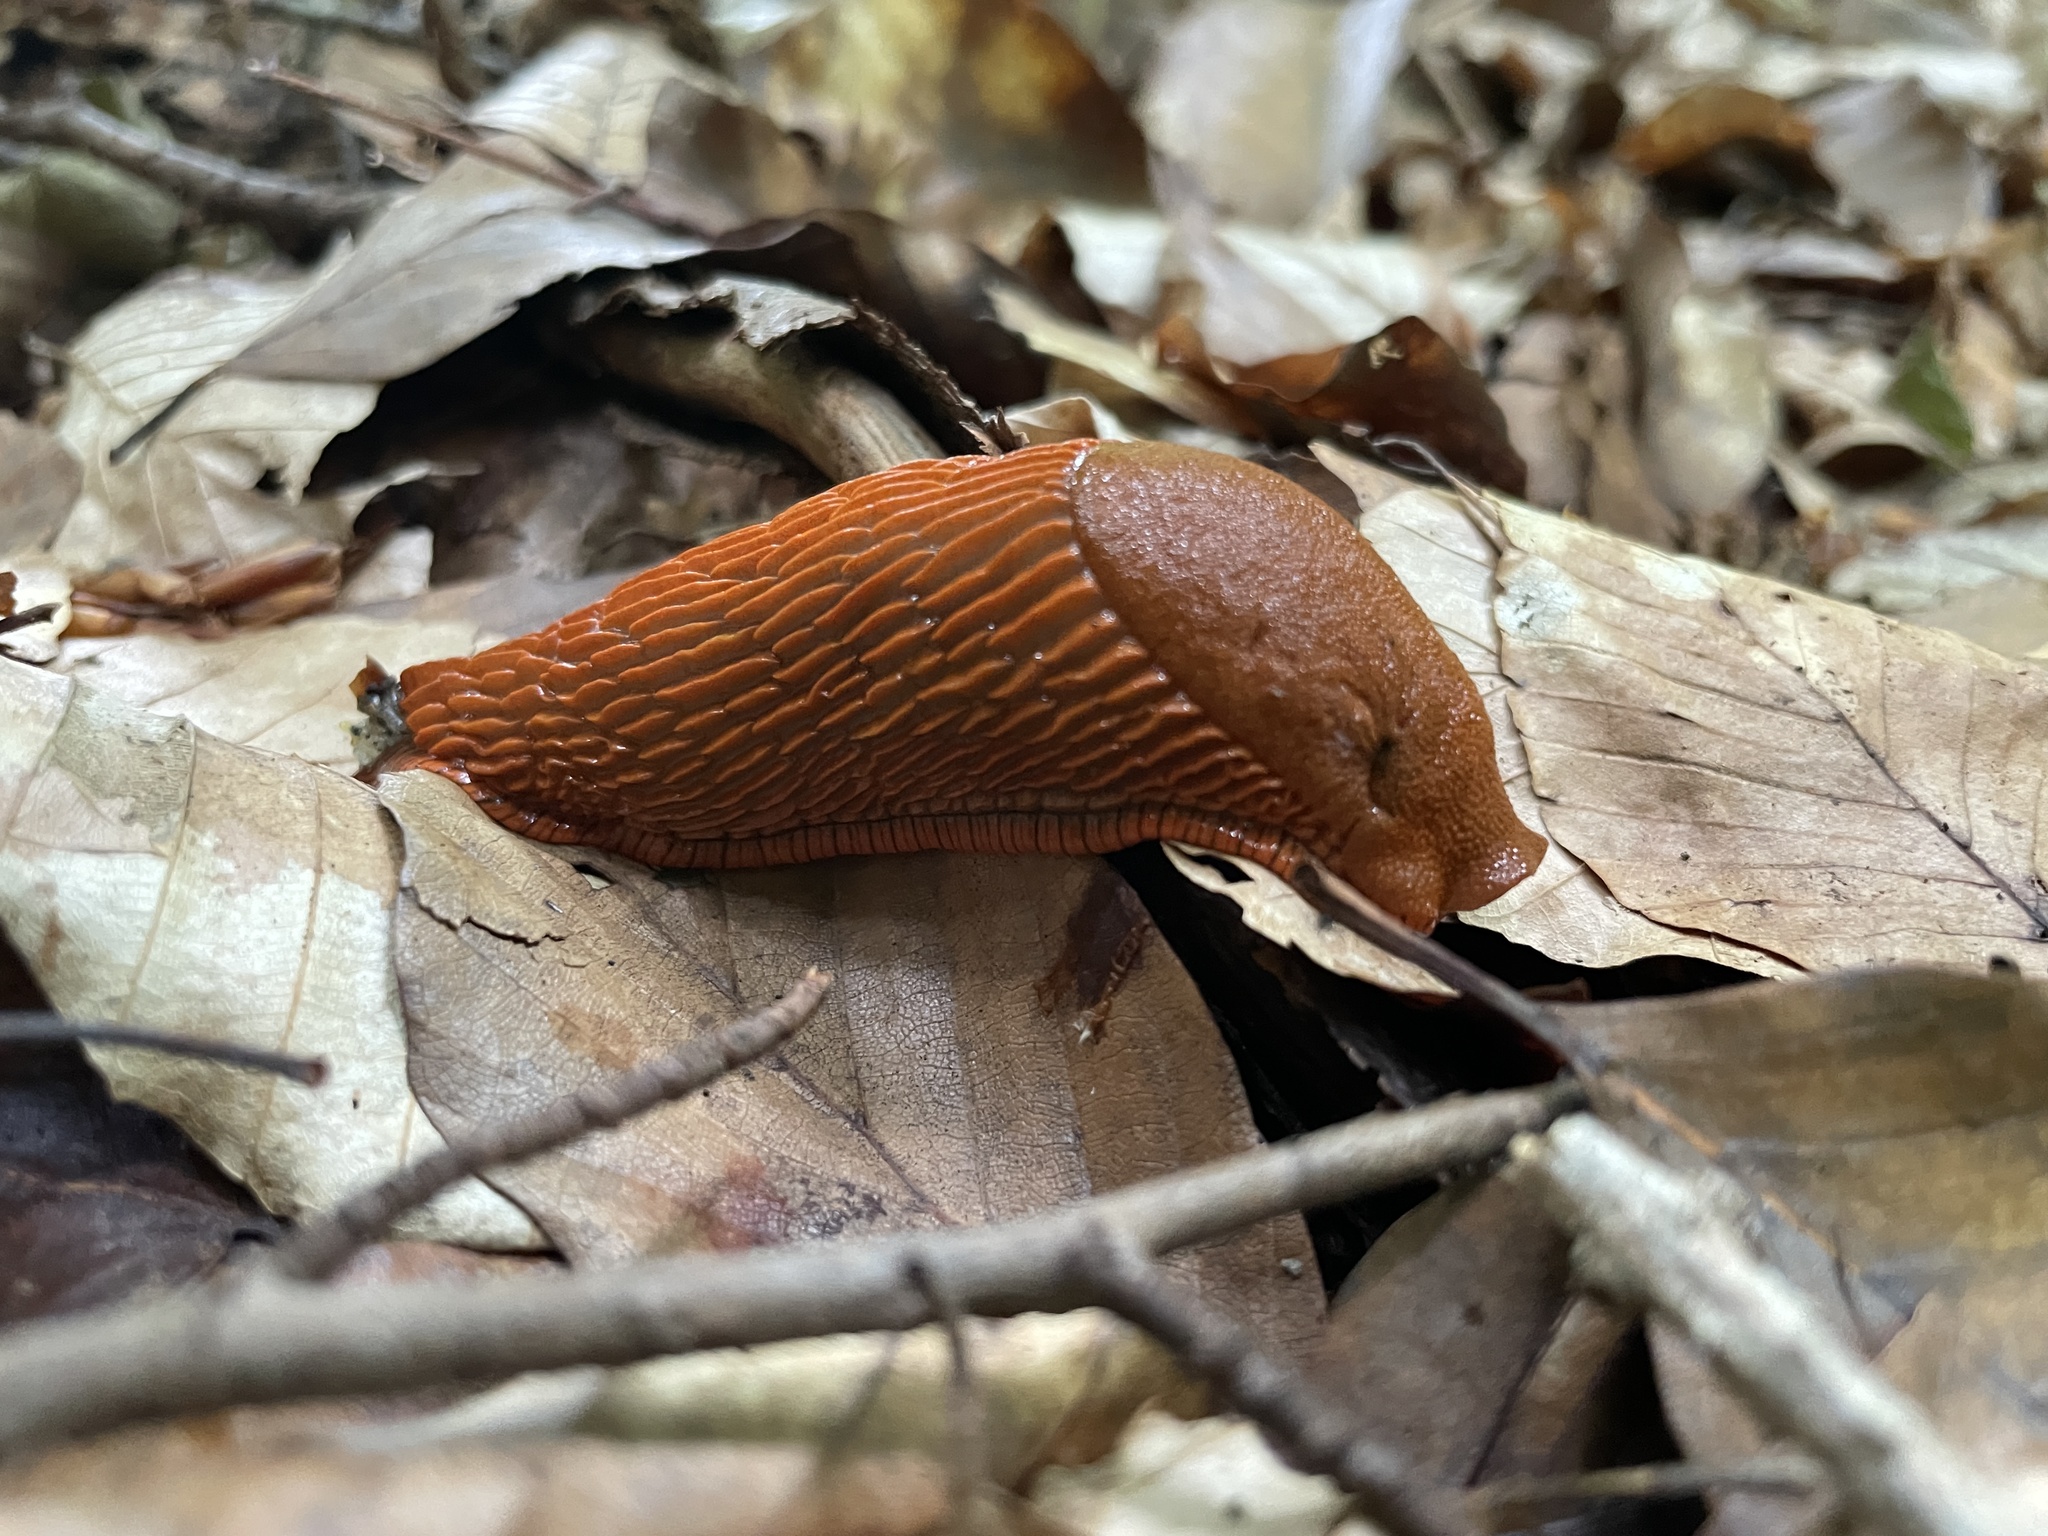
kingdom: Animalia
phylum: Mollusca
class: Gastropoda
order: Stylommatophora
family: Arionidae
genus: Arion
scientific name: Arion rufus
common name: Chocolate arion
